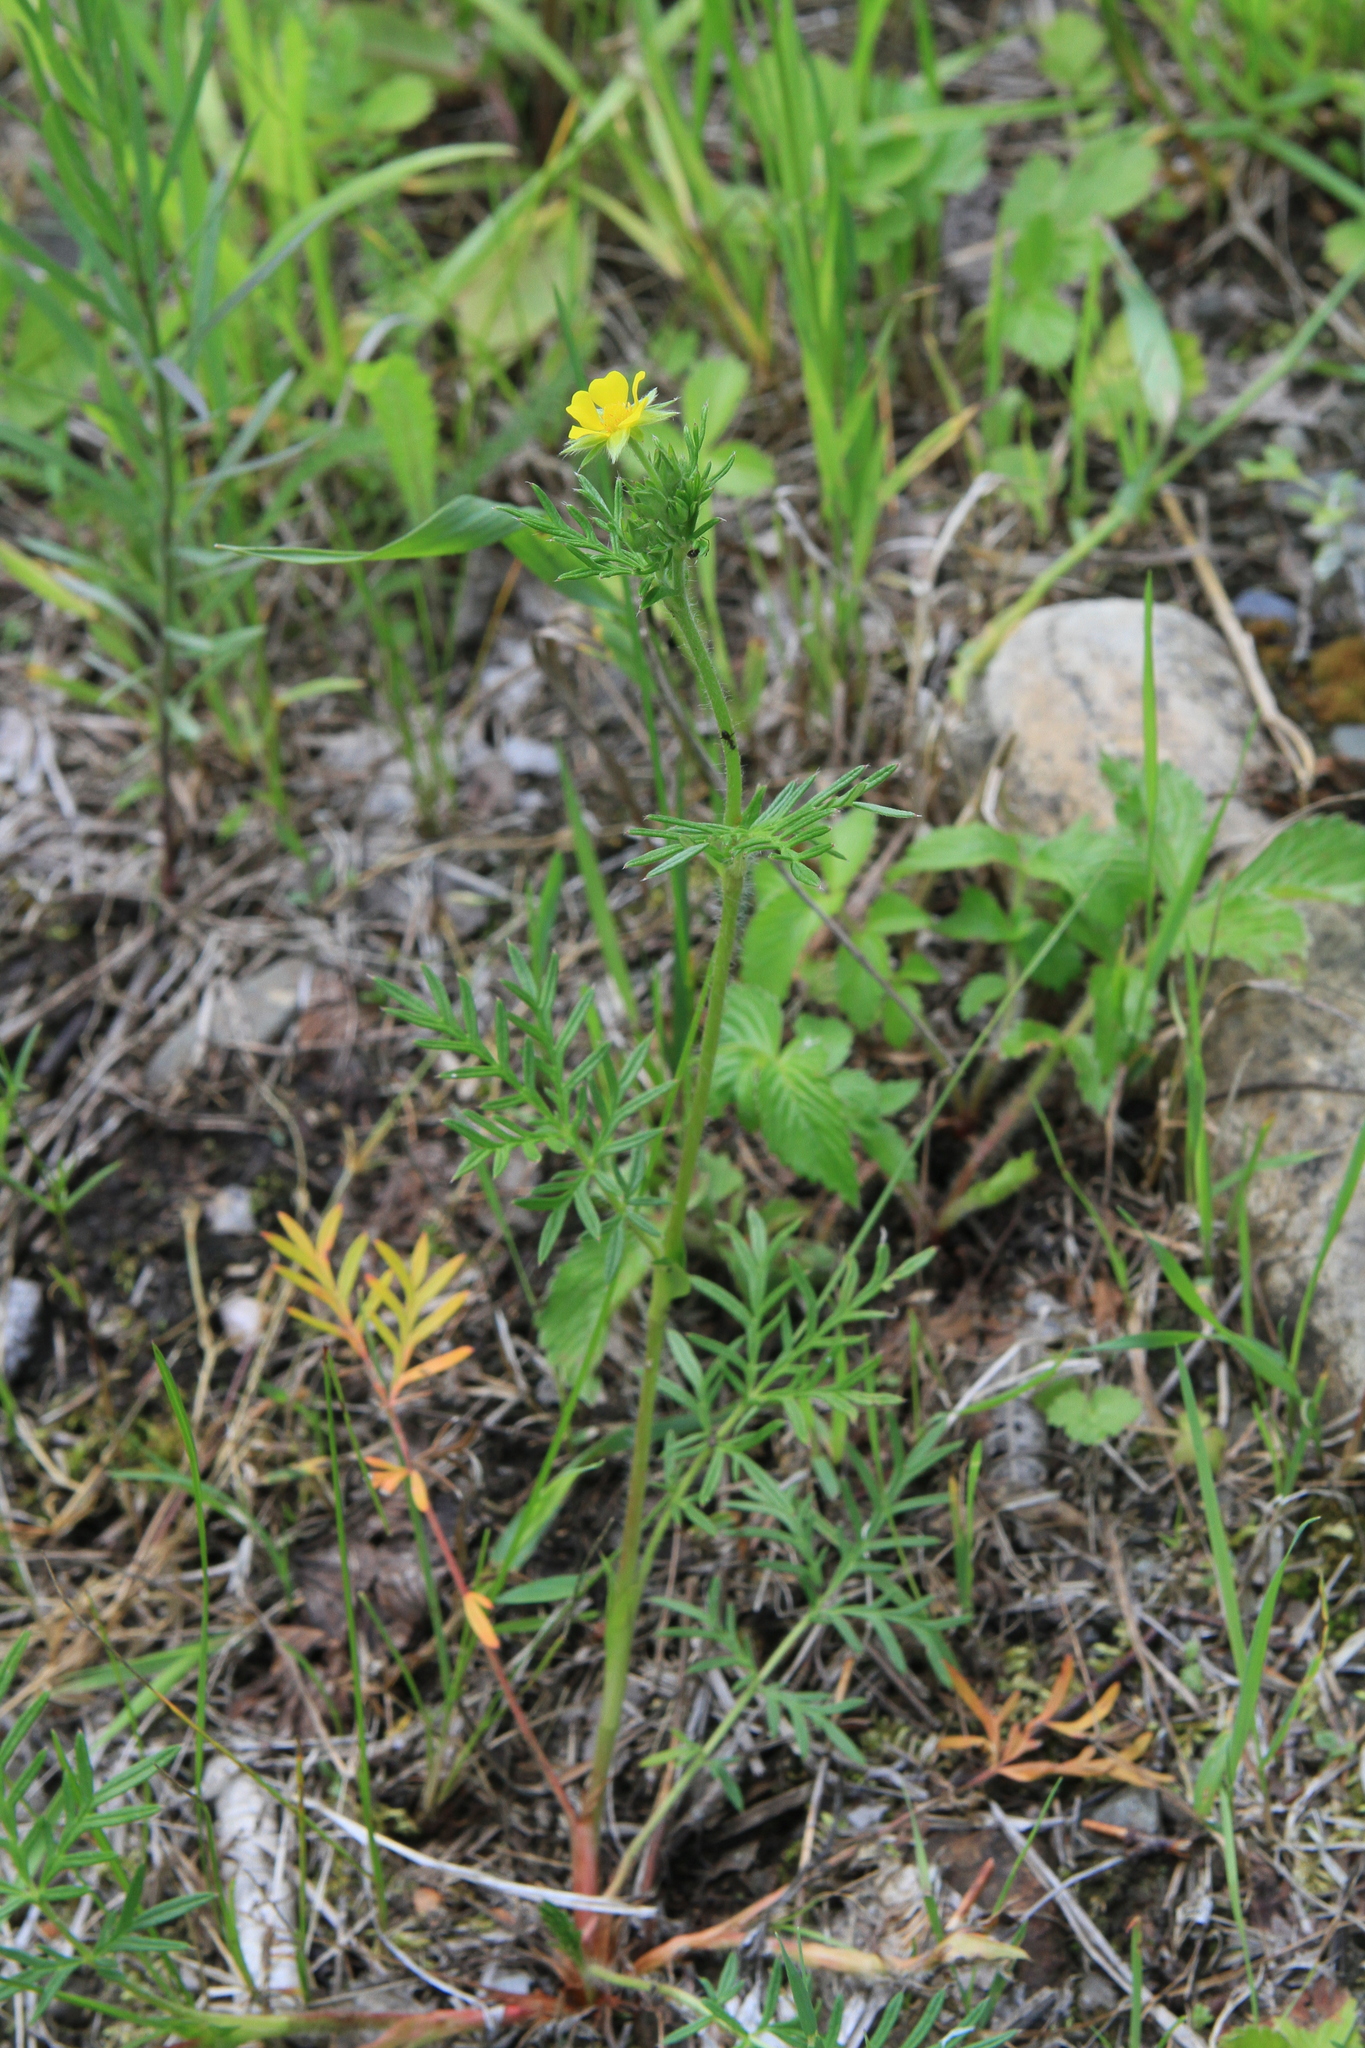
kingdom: Plantae
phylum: Tracheophyta
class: Magnoliopsida
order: Rosales
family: Rosaceae
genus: Potentilla
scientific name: Potentilla tergemina
